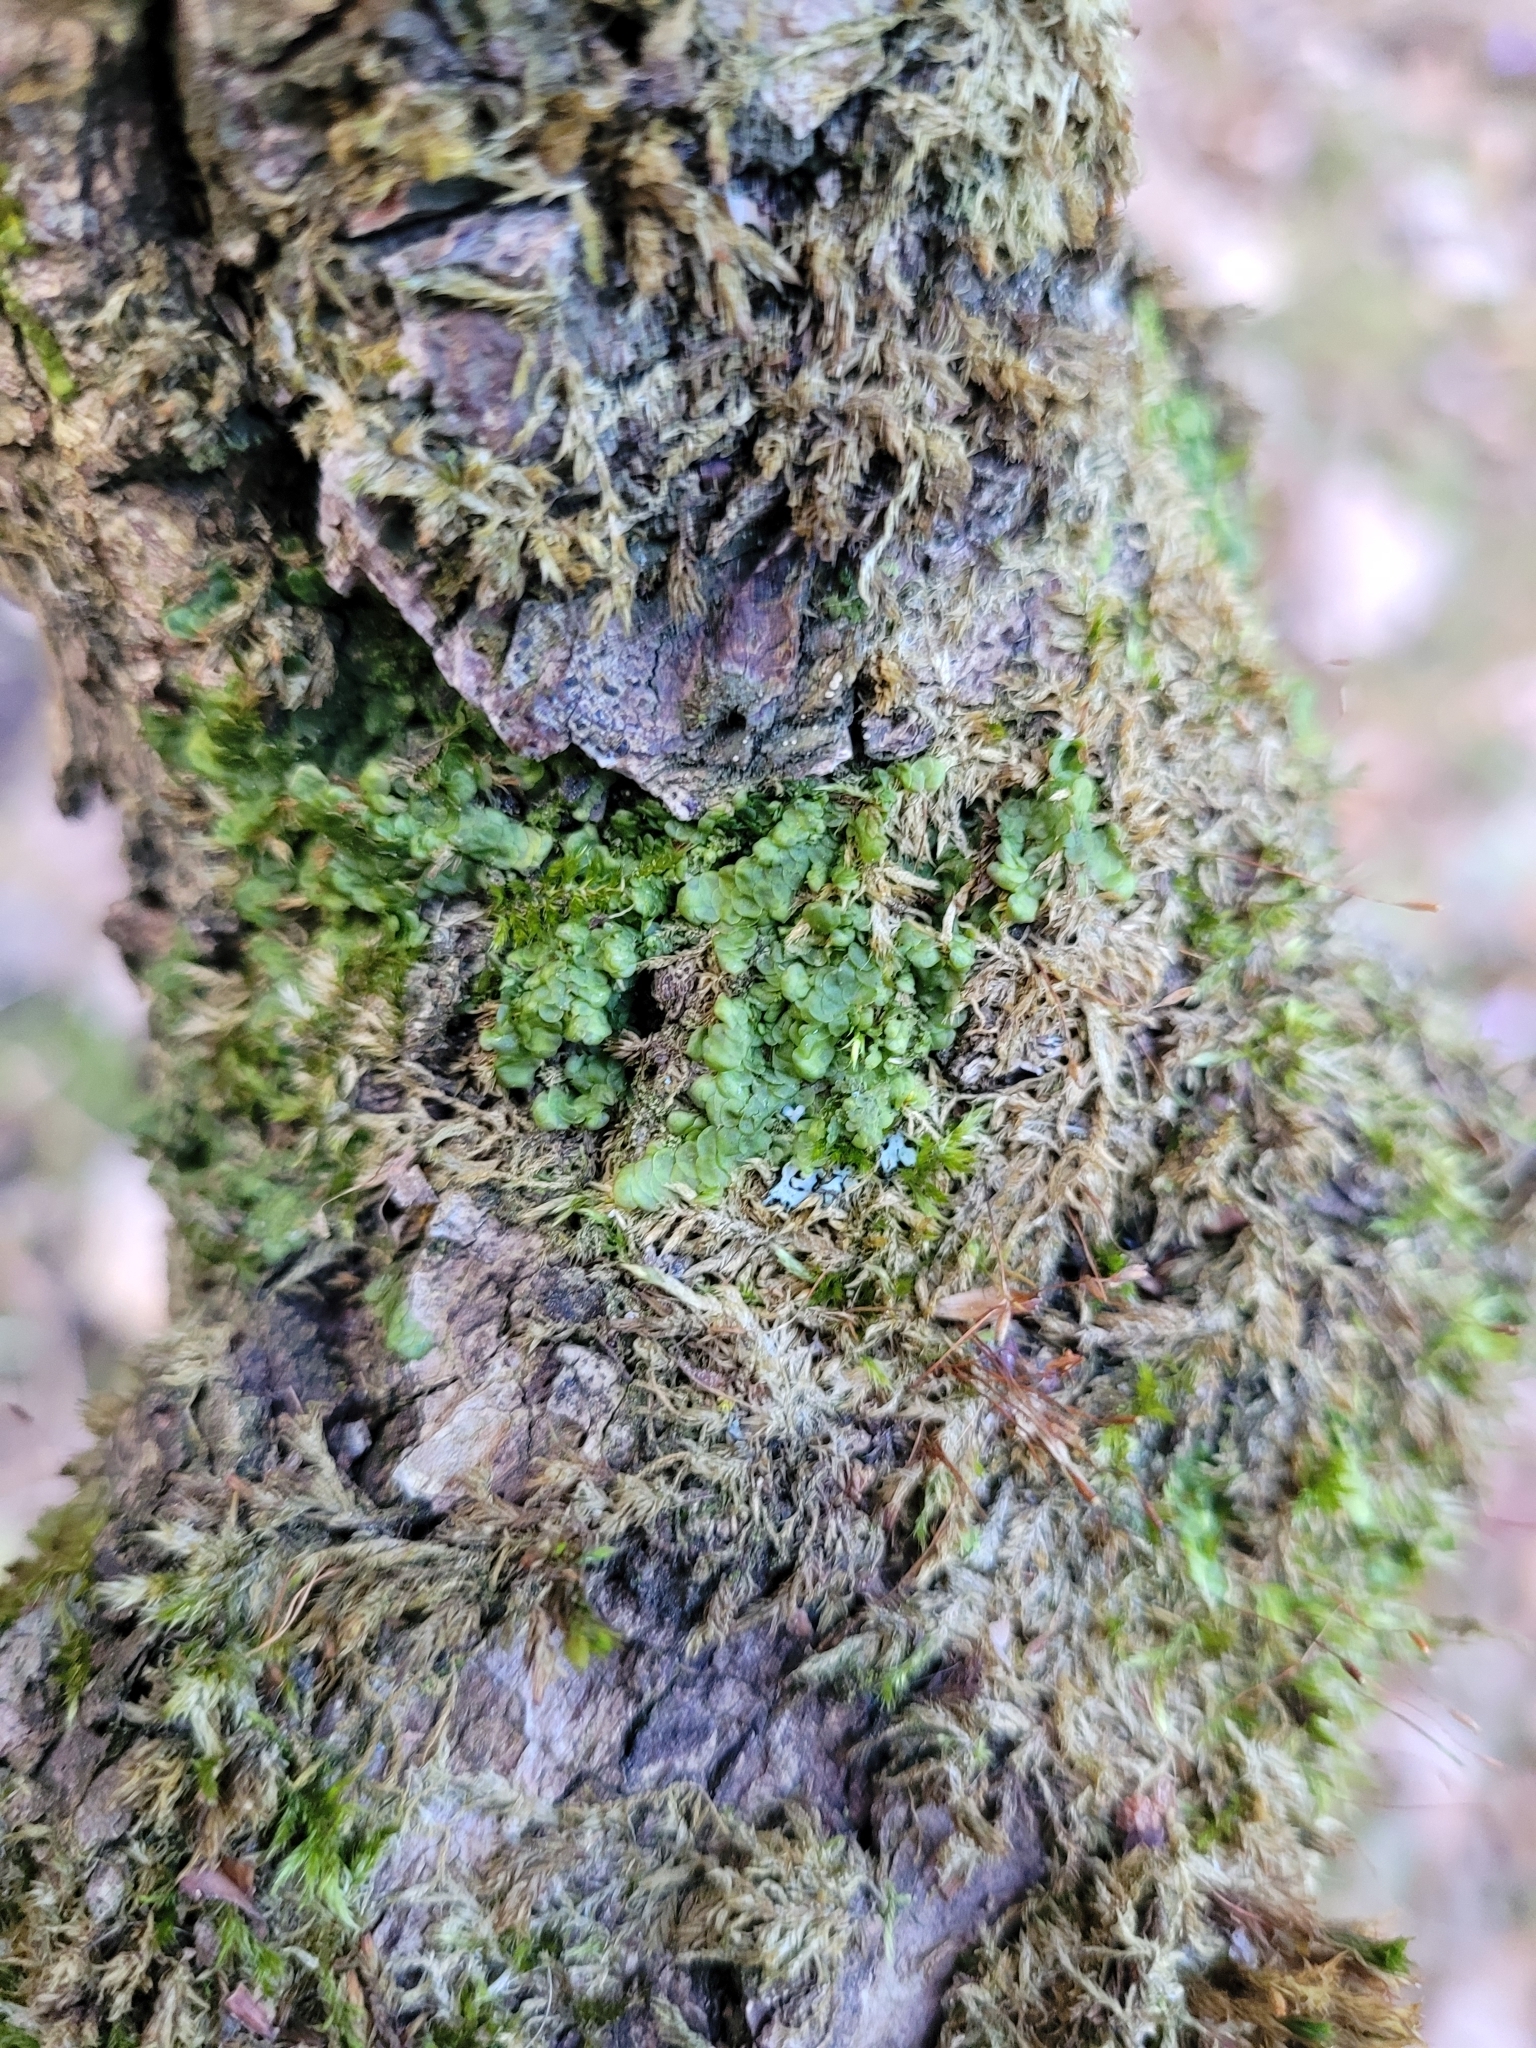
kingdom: Plantae
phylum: Marchantiophyta
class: Jungermanniopsida
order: Porellales
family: Radulaceae
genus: Radula
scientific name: Radula complanata
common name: Flat-leaved scalewort
